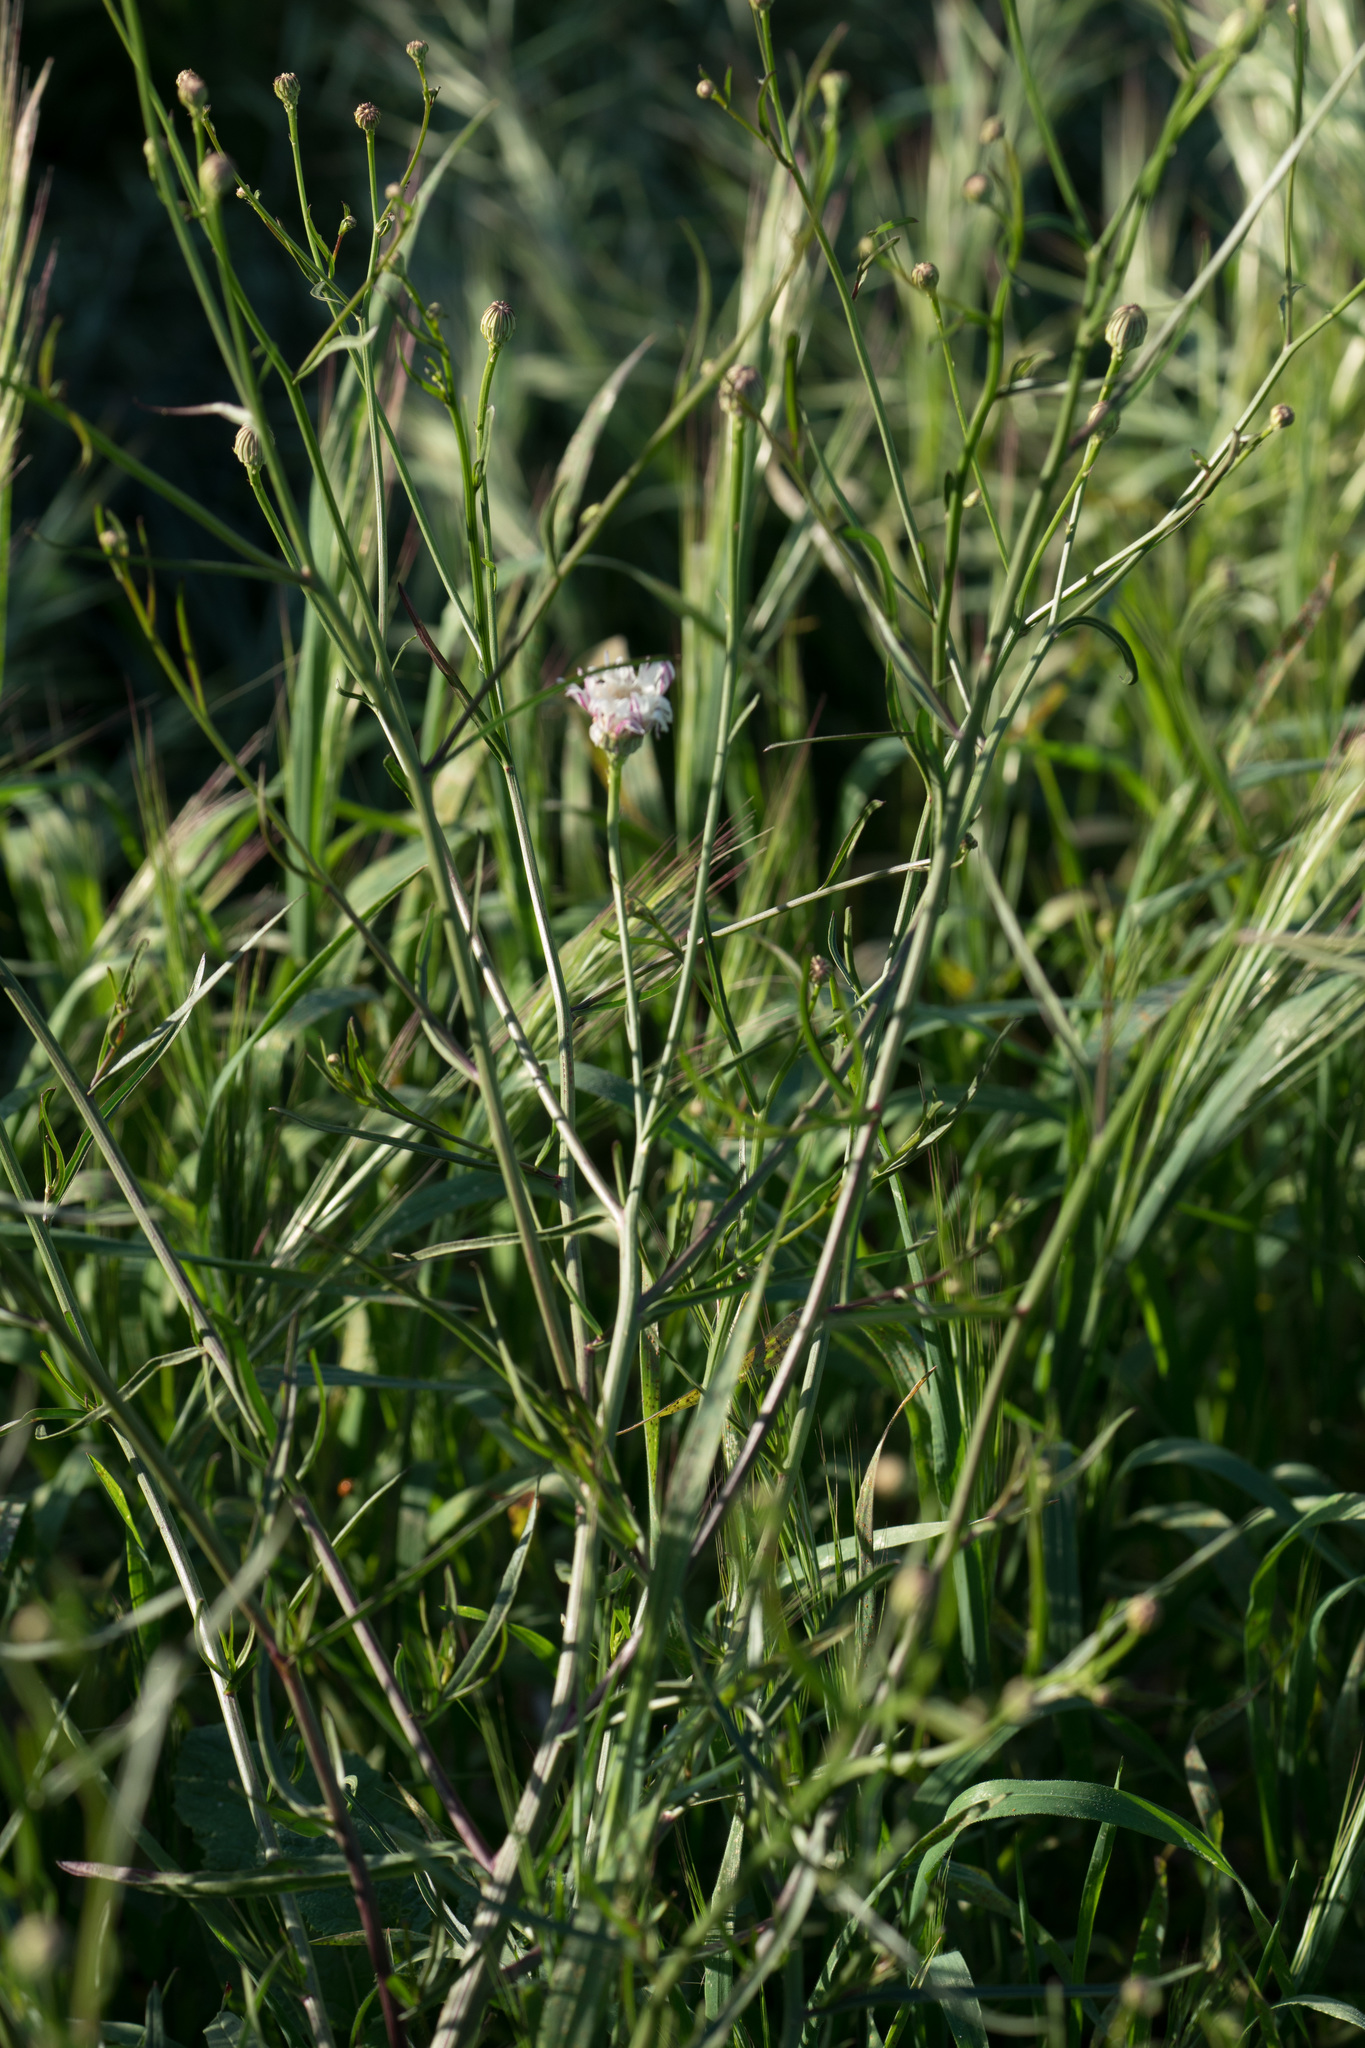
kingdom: Plantae
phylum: Tracheophyta
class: Magnoliopsida
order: Asterales
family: Asteraceae
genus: Malacothrix
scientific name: Malacothrix saxatilis
